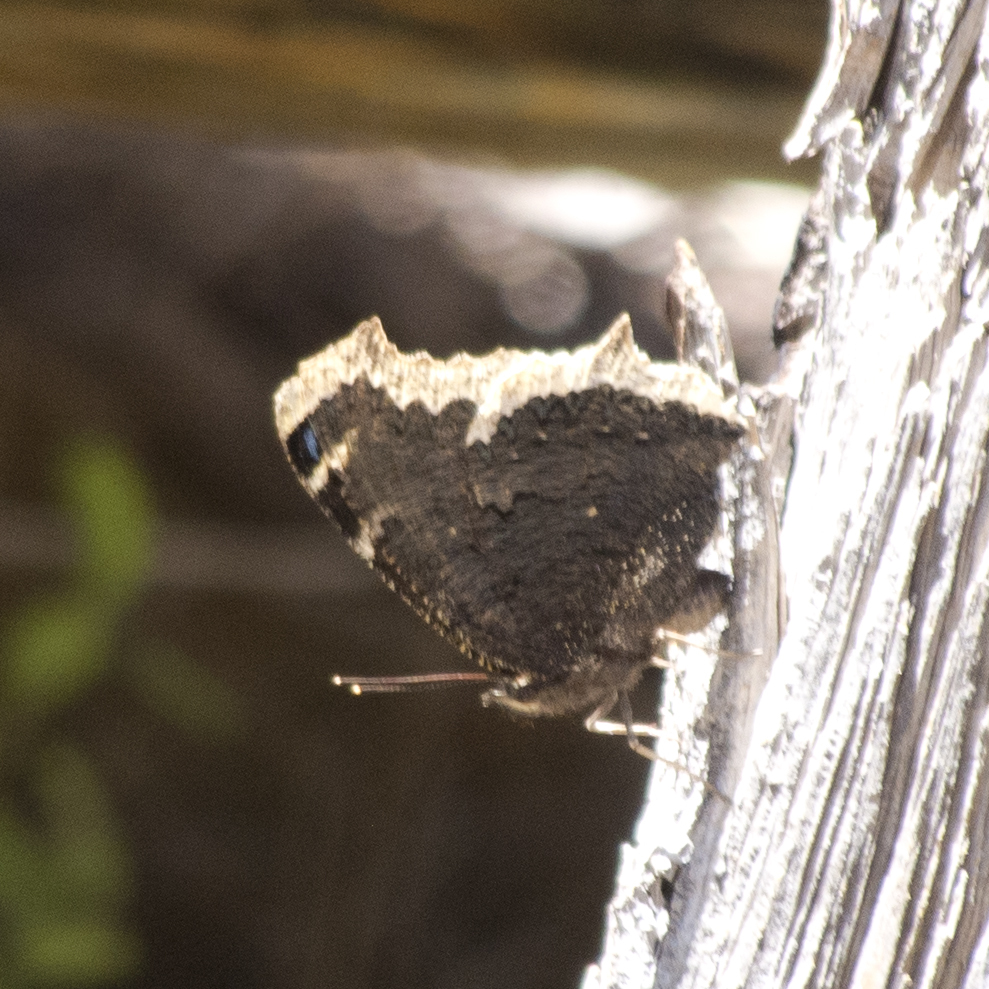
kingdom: Animalia
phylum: Arthropoda
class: Insecta
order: Lepidoptera
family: Nymphalidae
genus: Nymphalis
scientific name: Nymphalis antiopa
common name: Camberwell beauty
